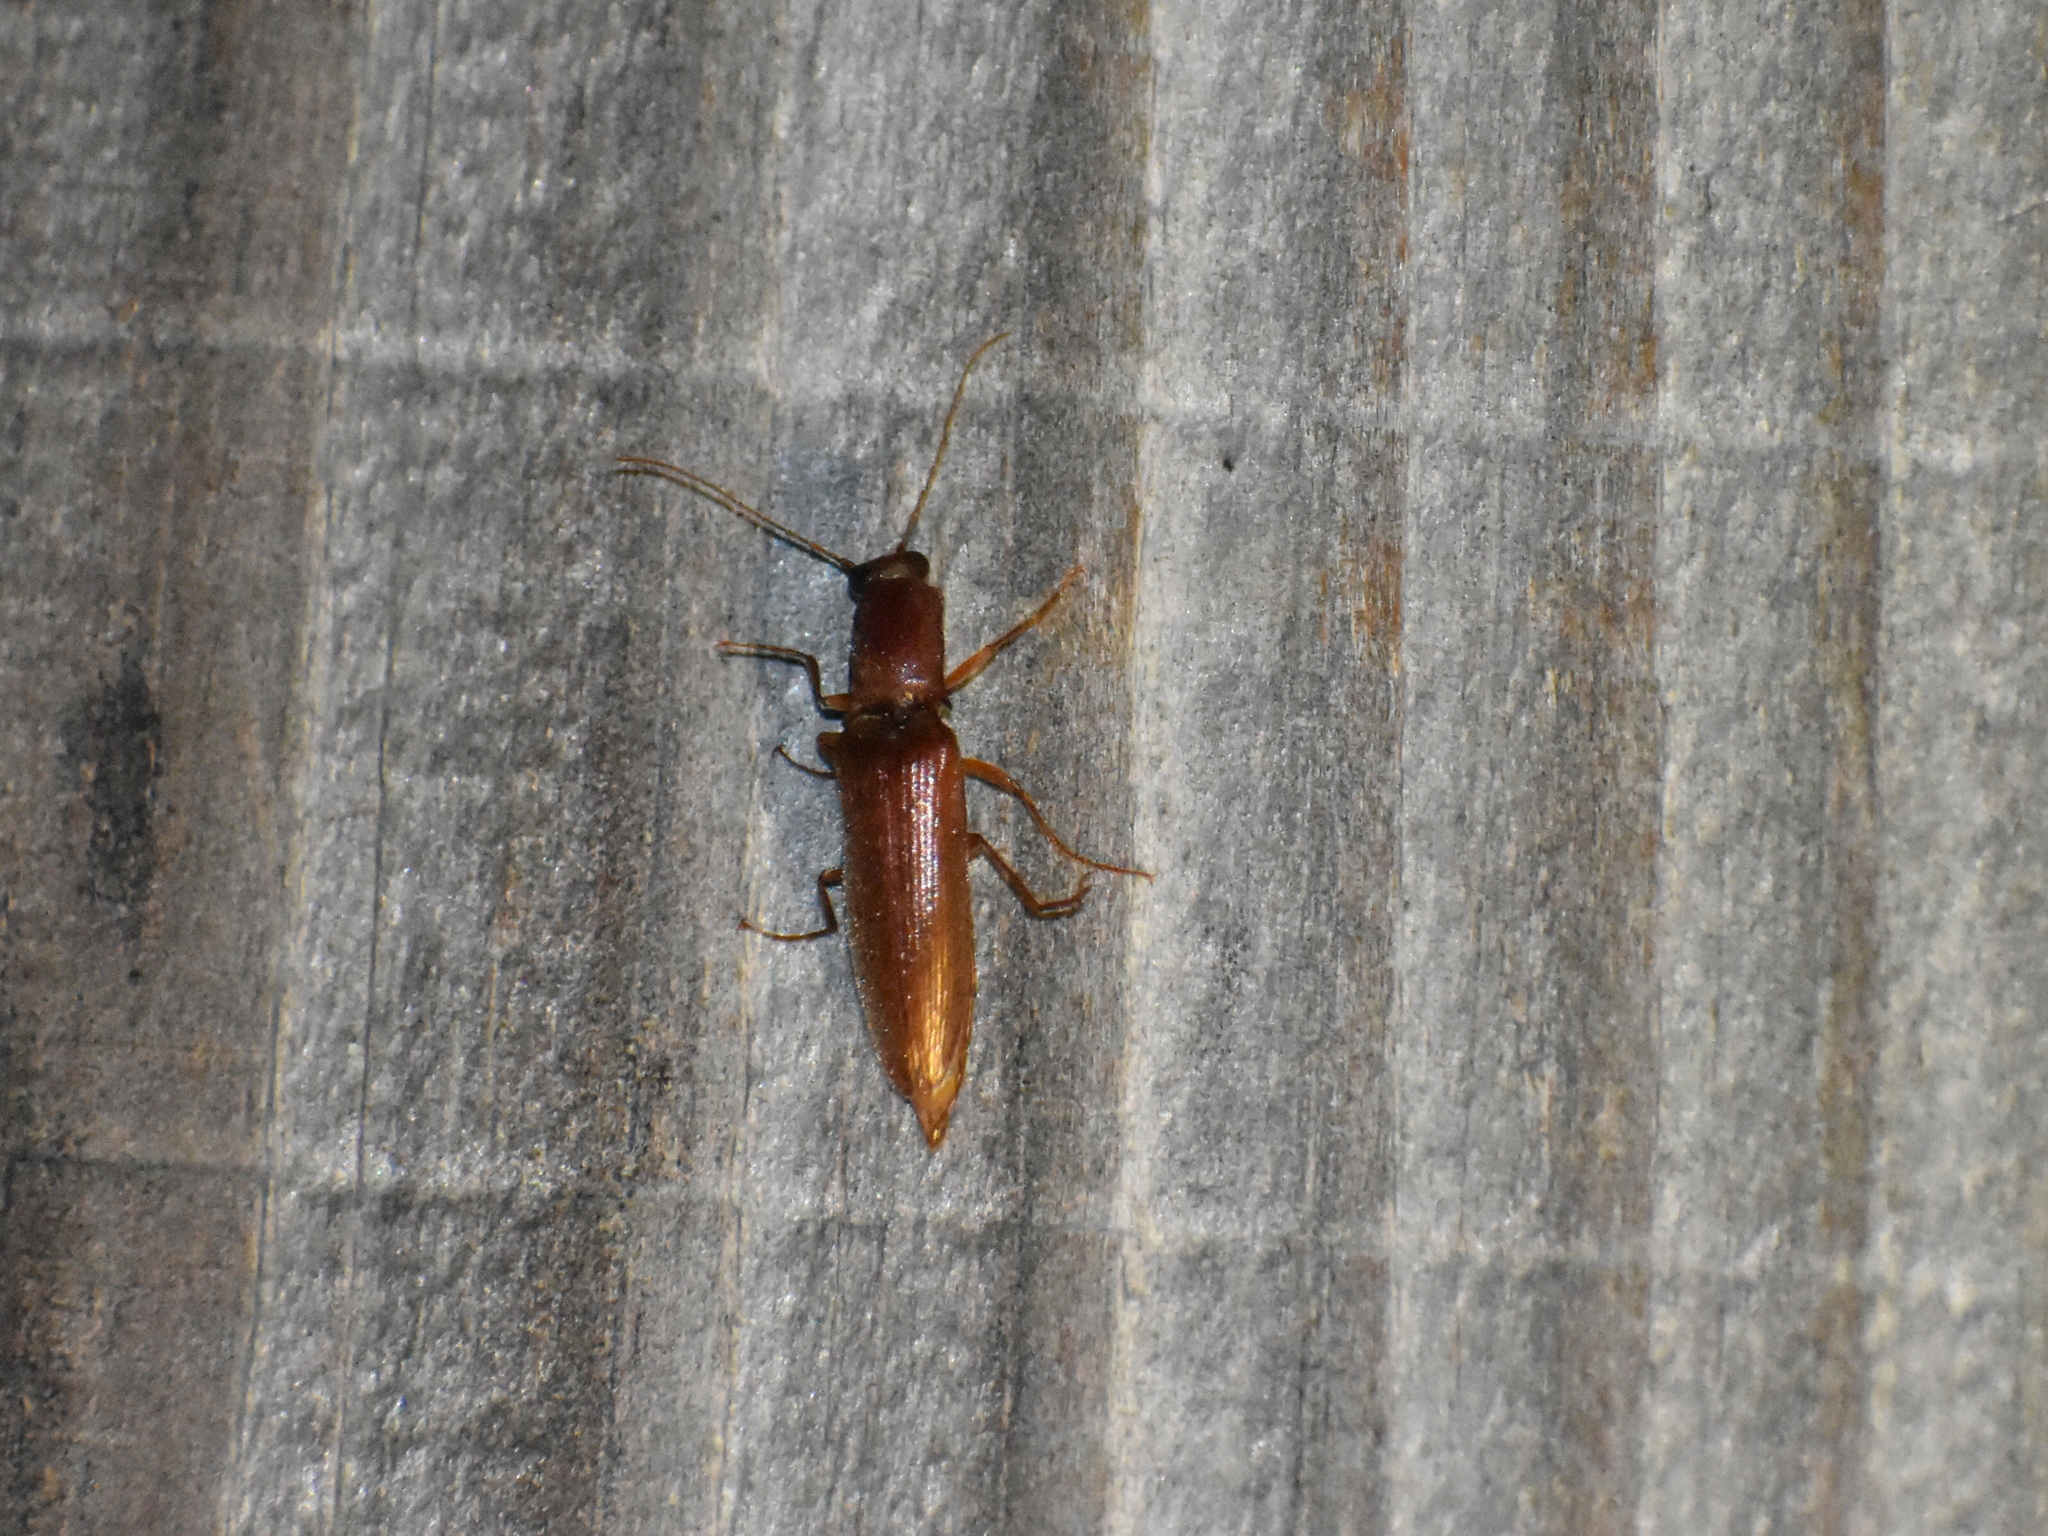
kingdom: Animalia
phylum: Arthropoda
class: Insecta
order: Coleoptera
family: Elateridae
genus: Proludius
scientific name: Proludius pyrros
